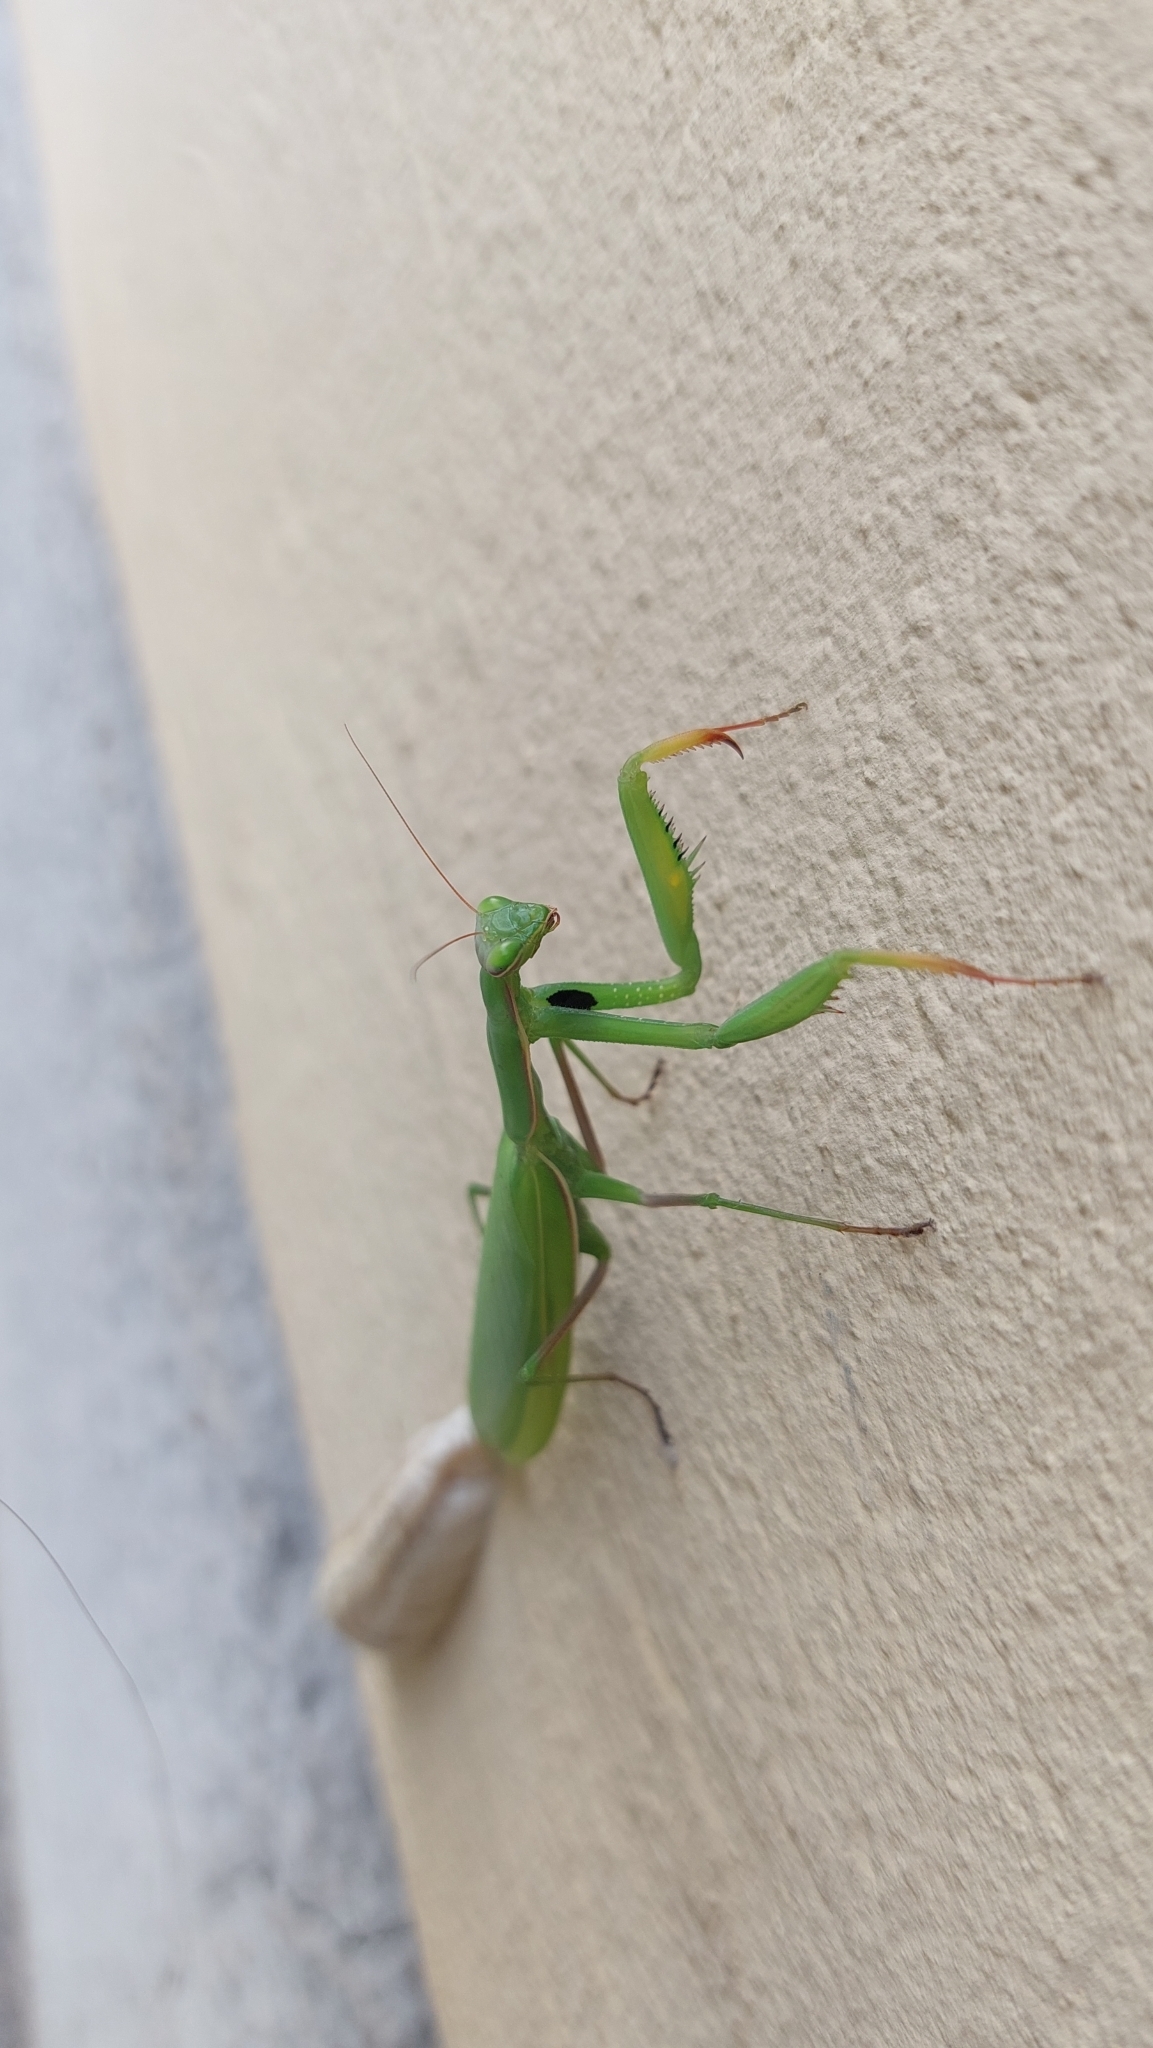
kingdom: Animalia
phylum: Arthropoda
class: Insecta
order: Mantodea
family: Mantidae
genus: Mantis
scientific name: Mantis religiosa
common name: Praying mantis
